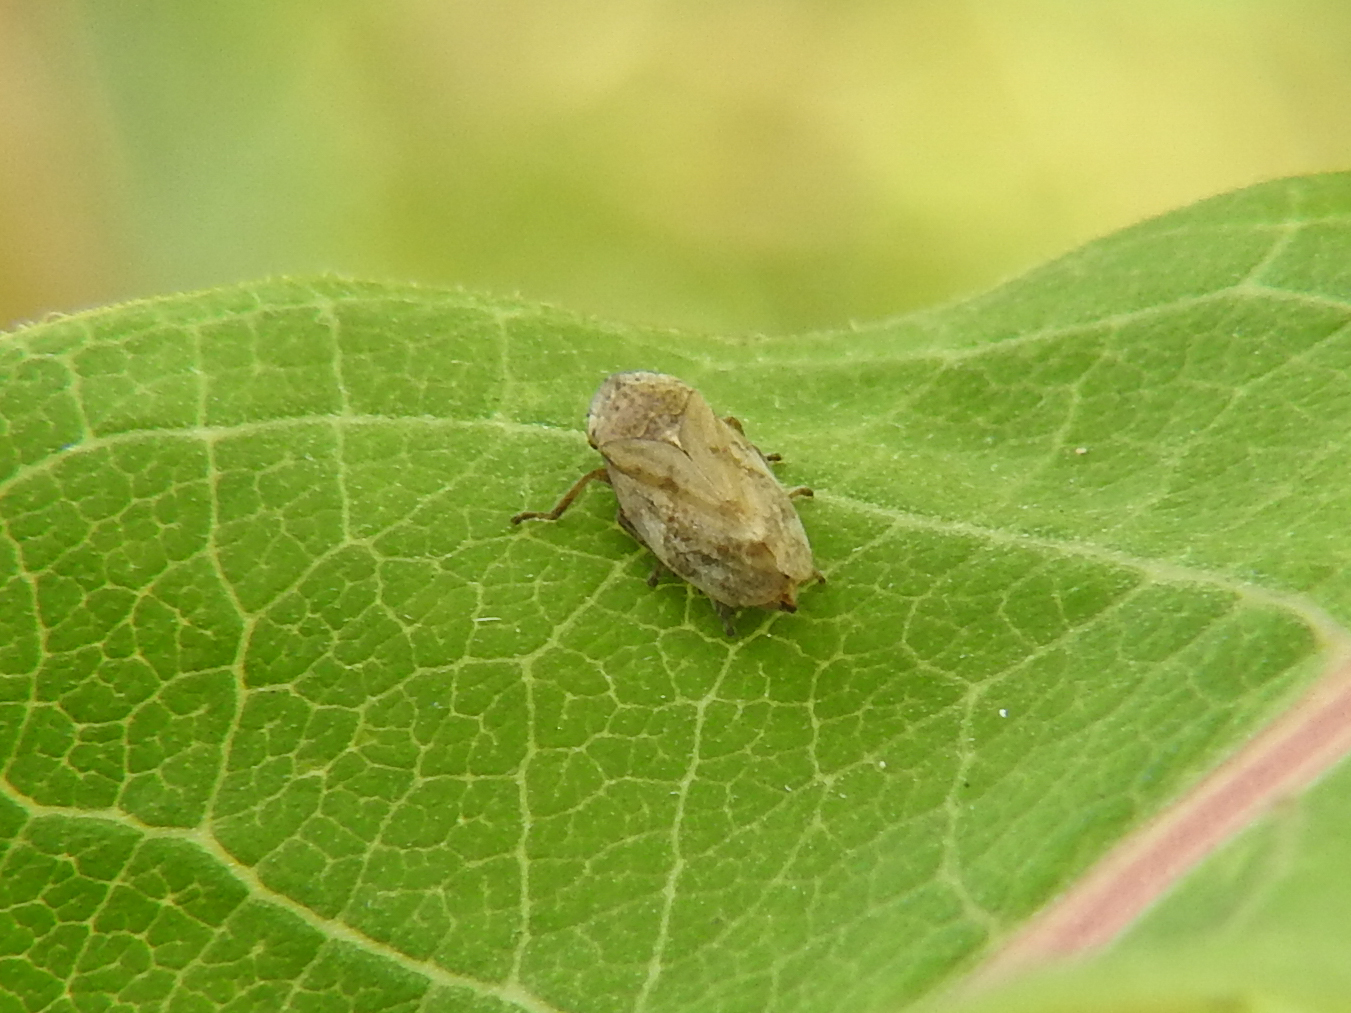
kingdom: Animalia
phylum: Arthropoda
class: Insecta
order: Hemiptera
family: Aphrophoridae
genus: Philaenus
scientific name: Philaenus spumarius
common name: Meadow spittlebug
